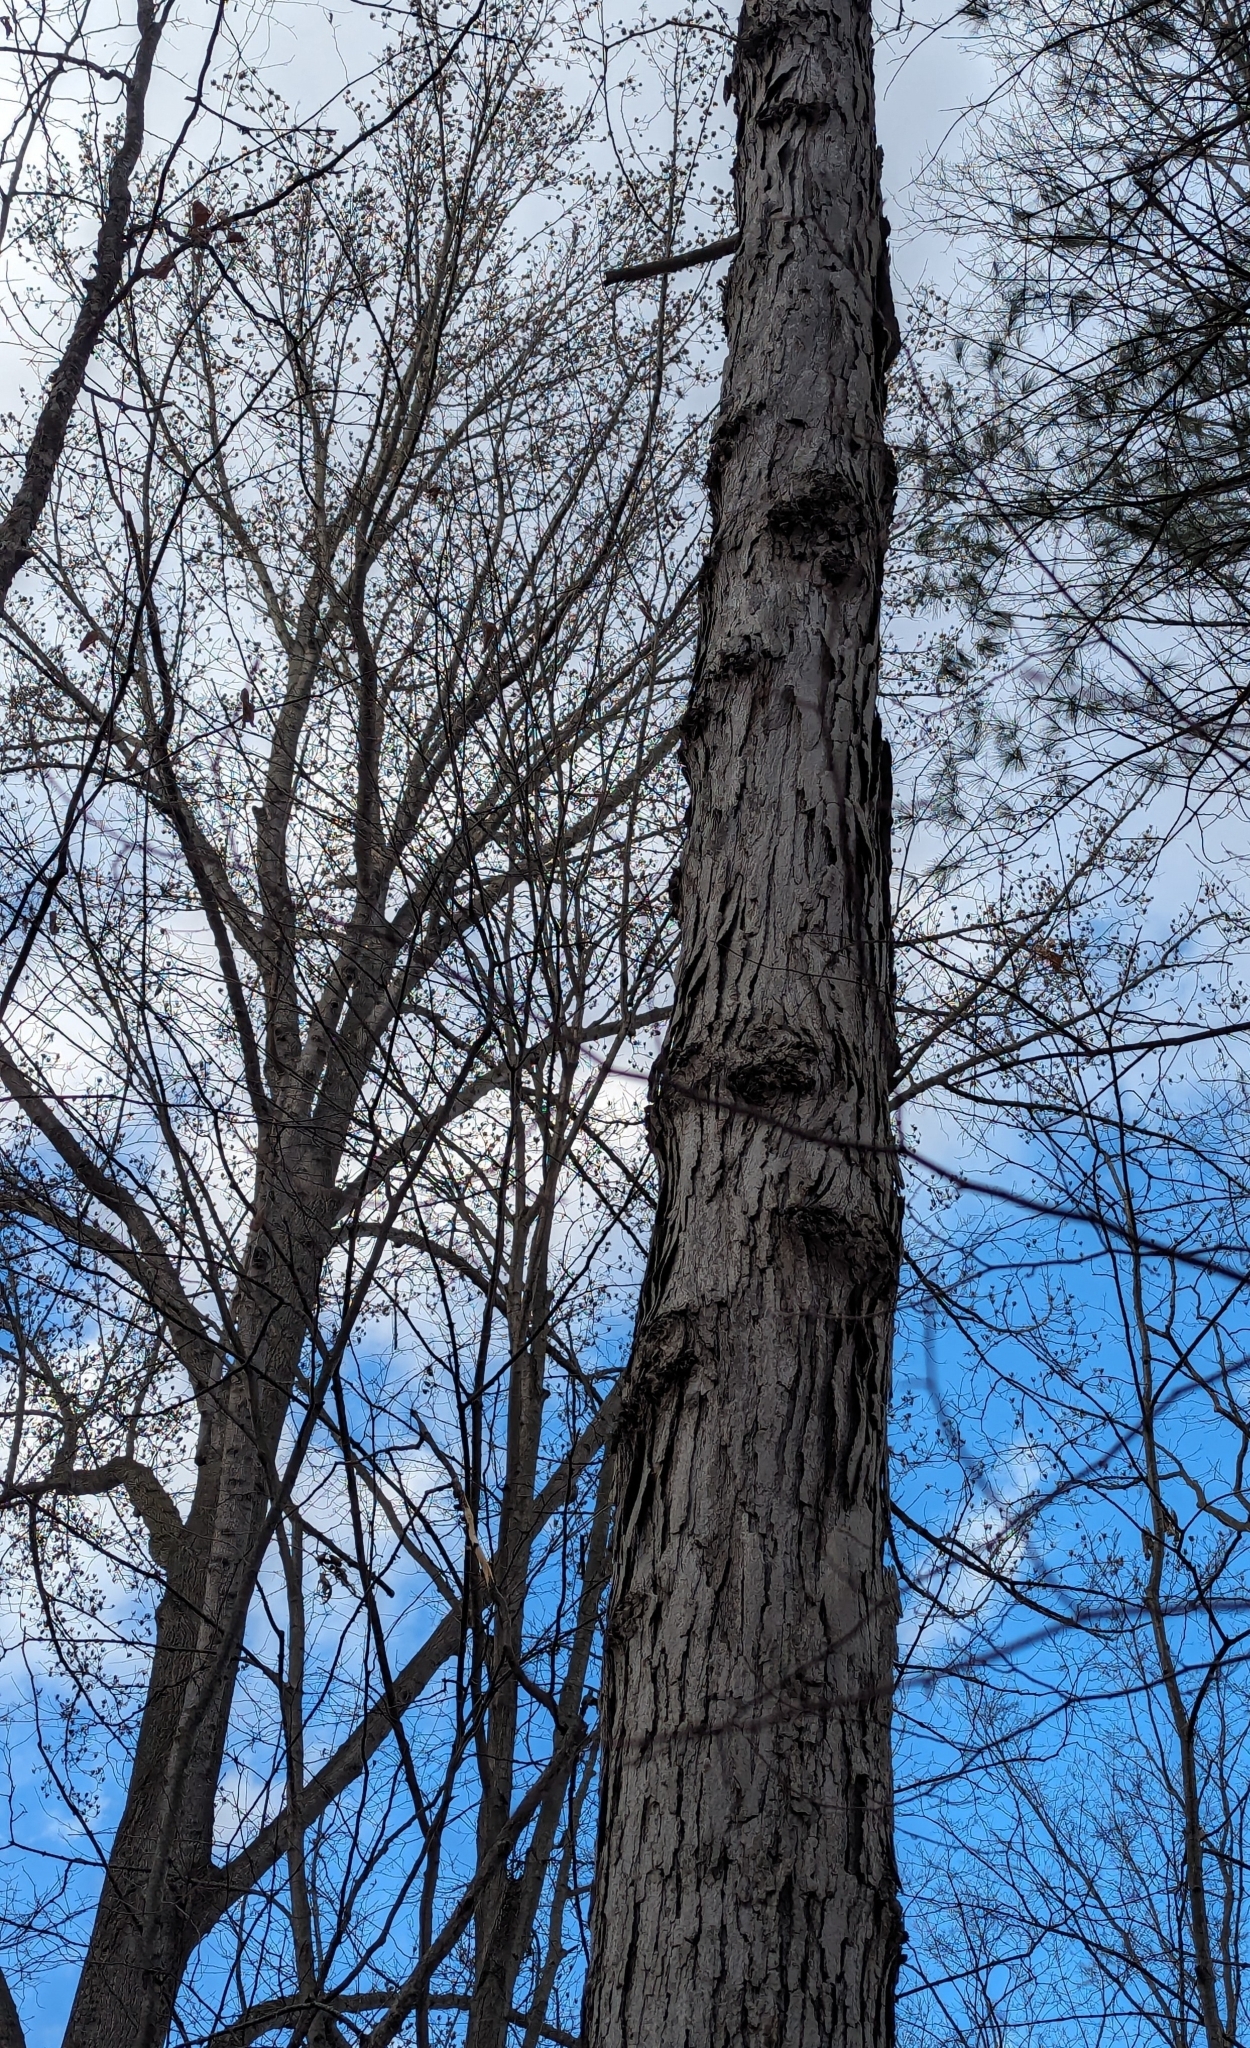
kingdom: Plantae
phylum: Tracheophyta
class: Magnoliopsida
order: Magnoliales
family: Magnoliaceae
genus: Liriodendron
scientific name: Liriodendron tulipifera
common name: Tulip tree
